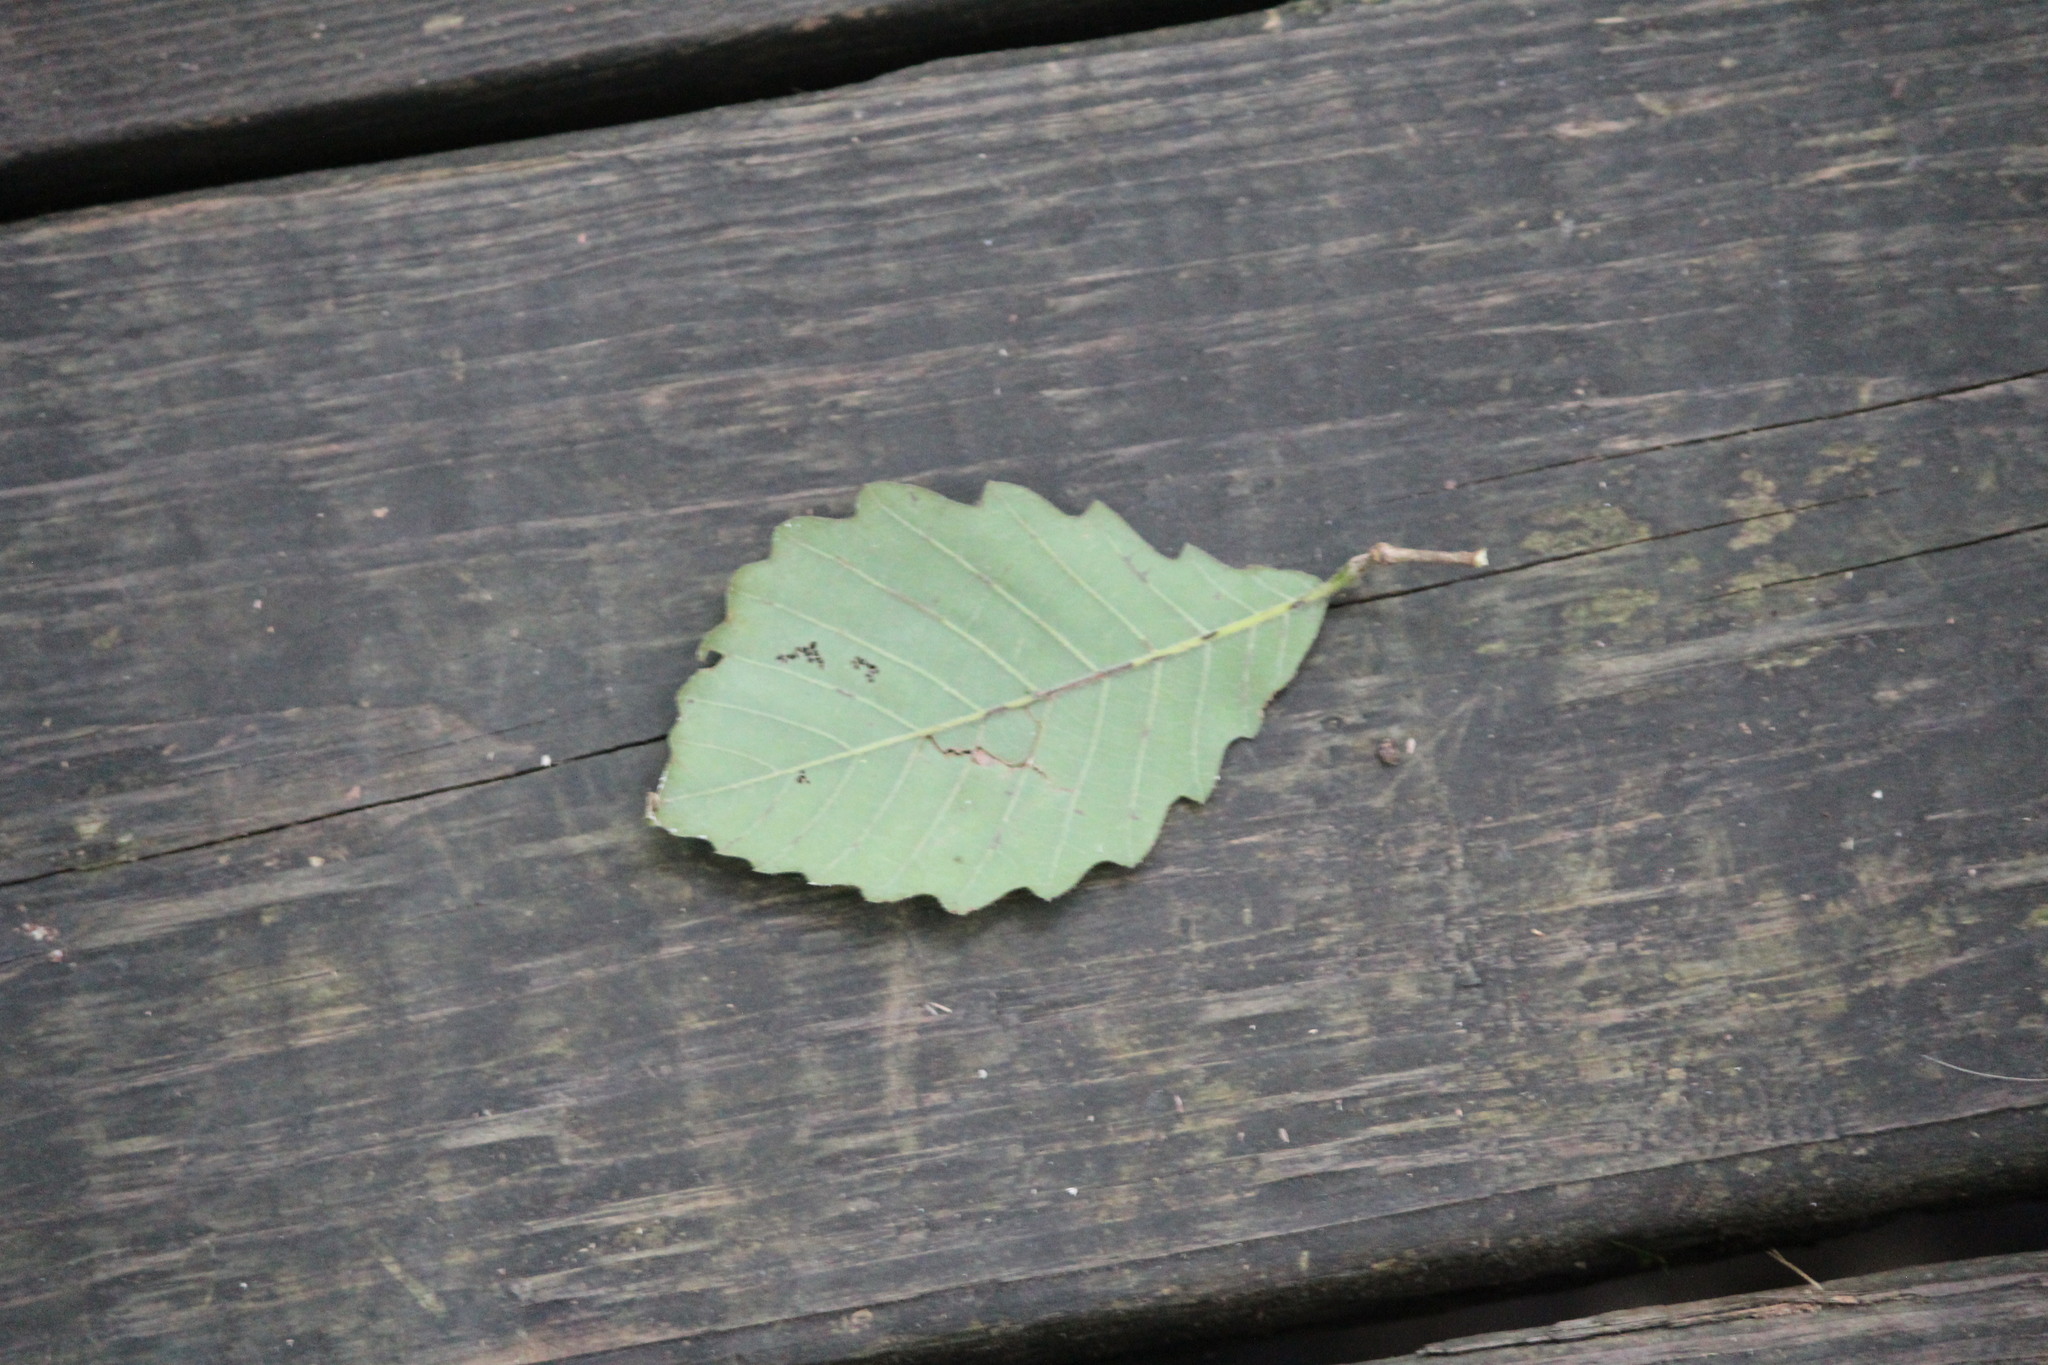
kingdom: Plantae
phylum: Tracheophyta
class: Magnoliopsida
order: Fagales
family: Fagaceae
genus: Quercus
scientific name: Quercus michauxii
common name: Swamp chestnut oak
